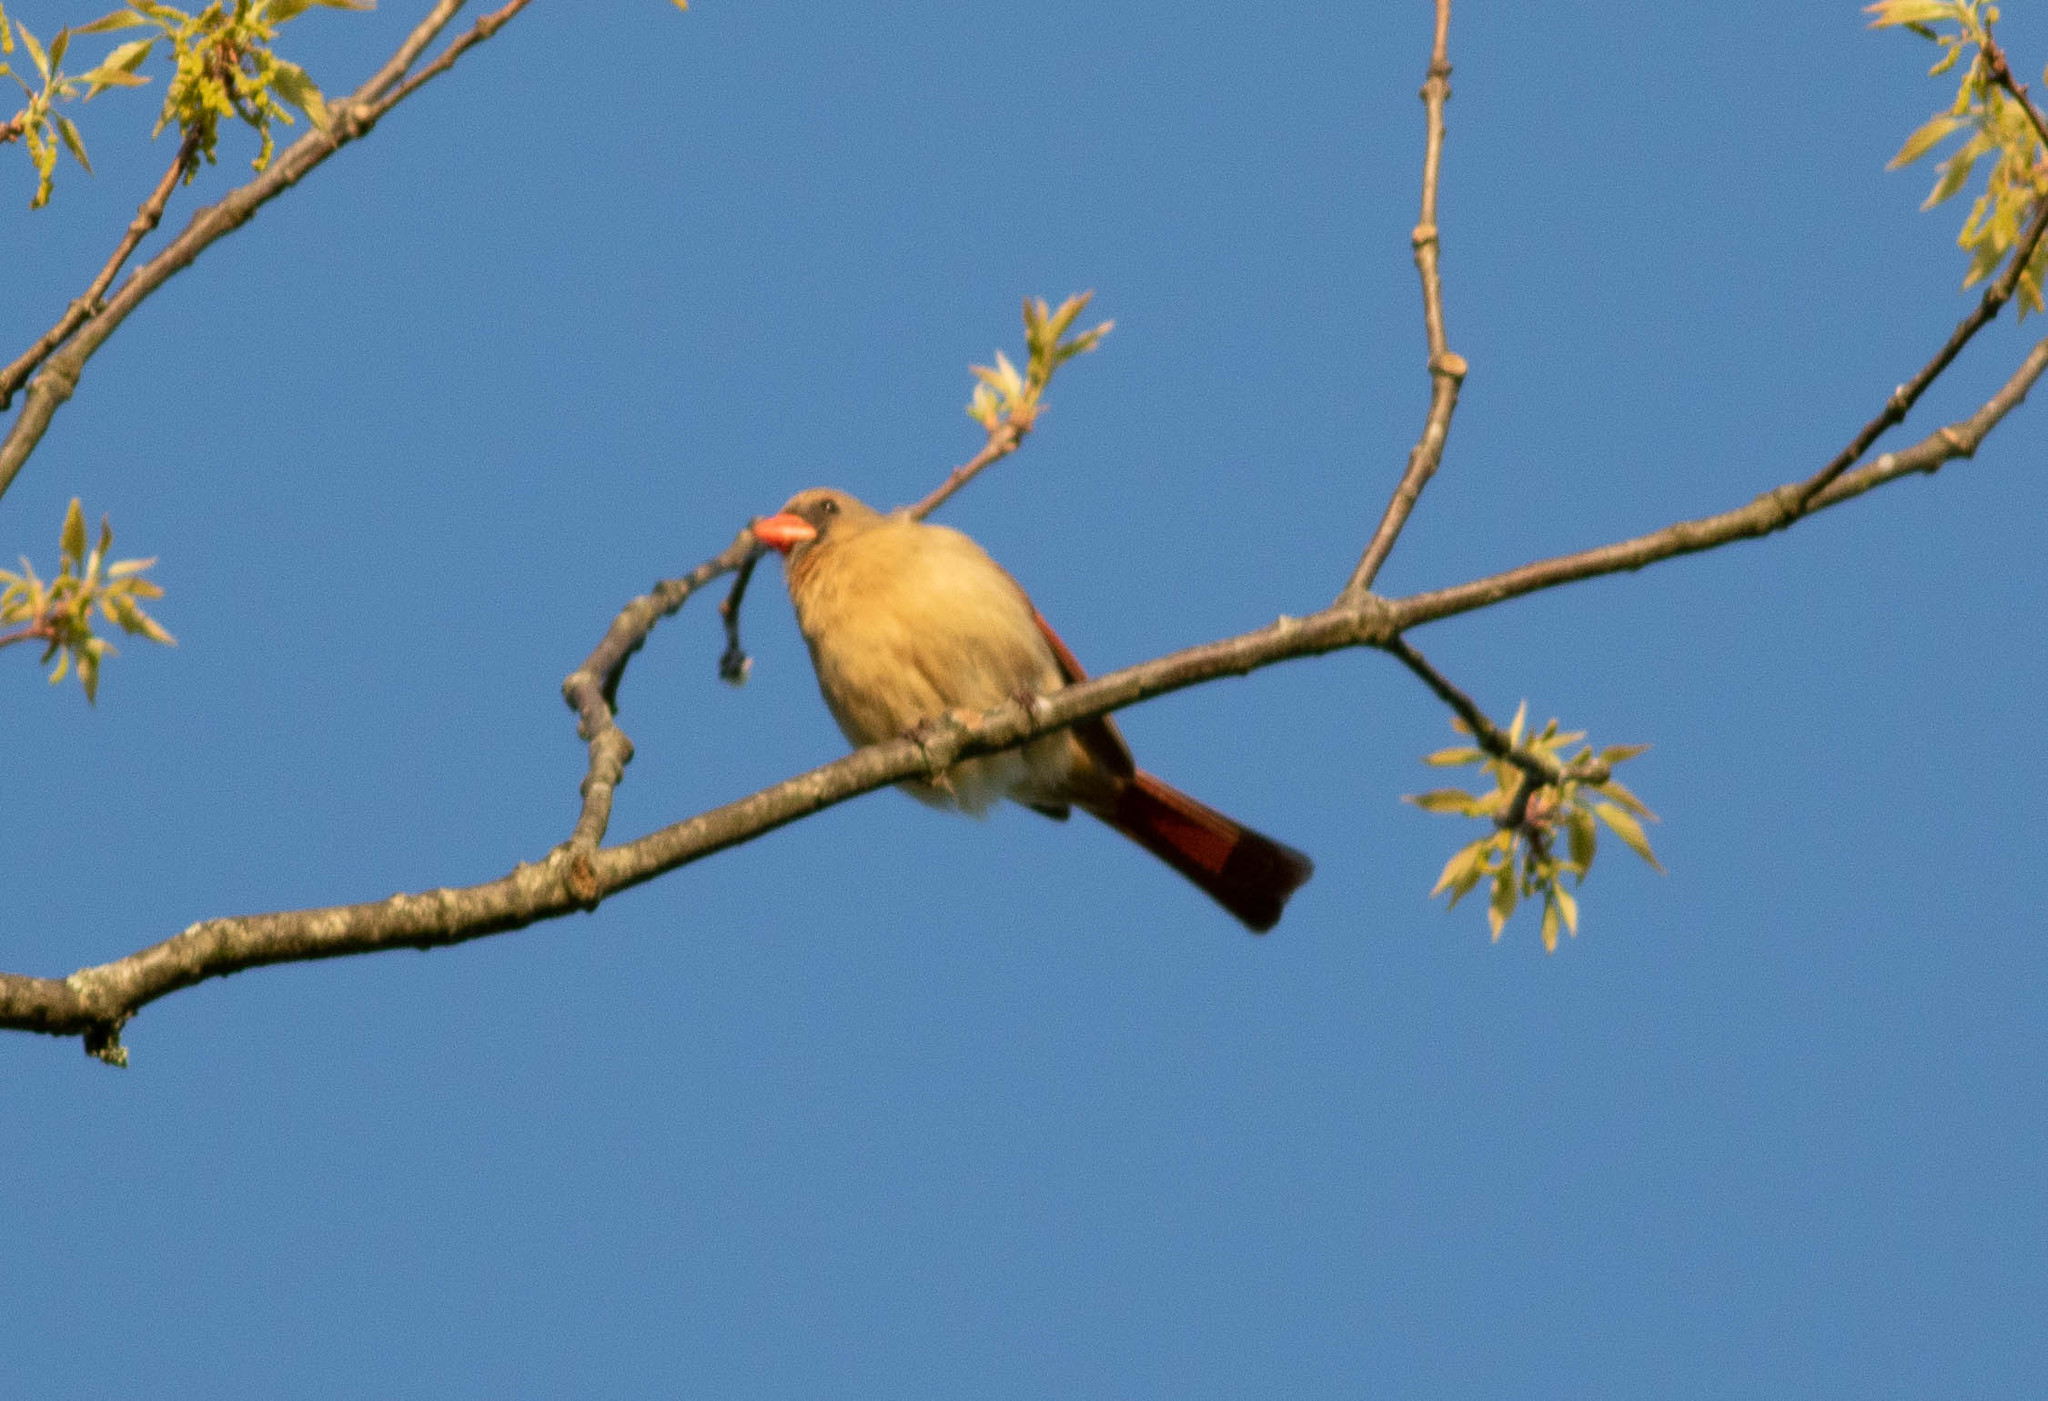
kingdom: Animalia
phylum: Chordata
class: Aves
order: Passeriformes
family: Cardinalidae
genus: Cardinalis
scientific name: Cardinalis cardinalis
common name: Northern cardinal
